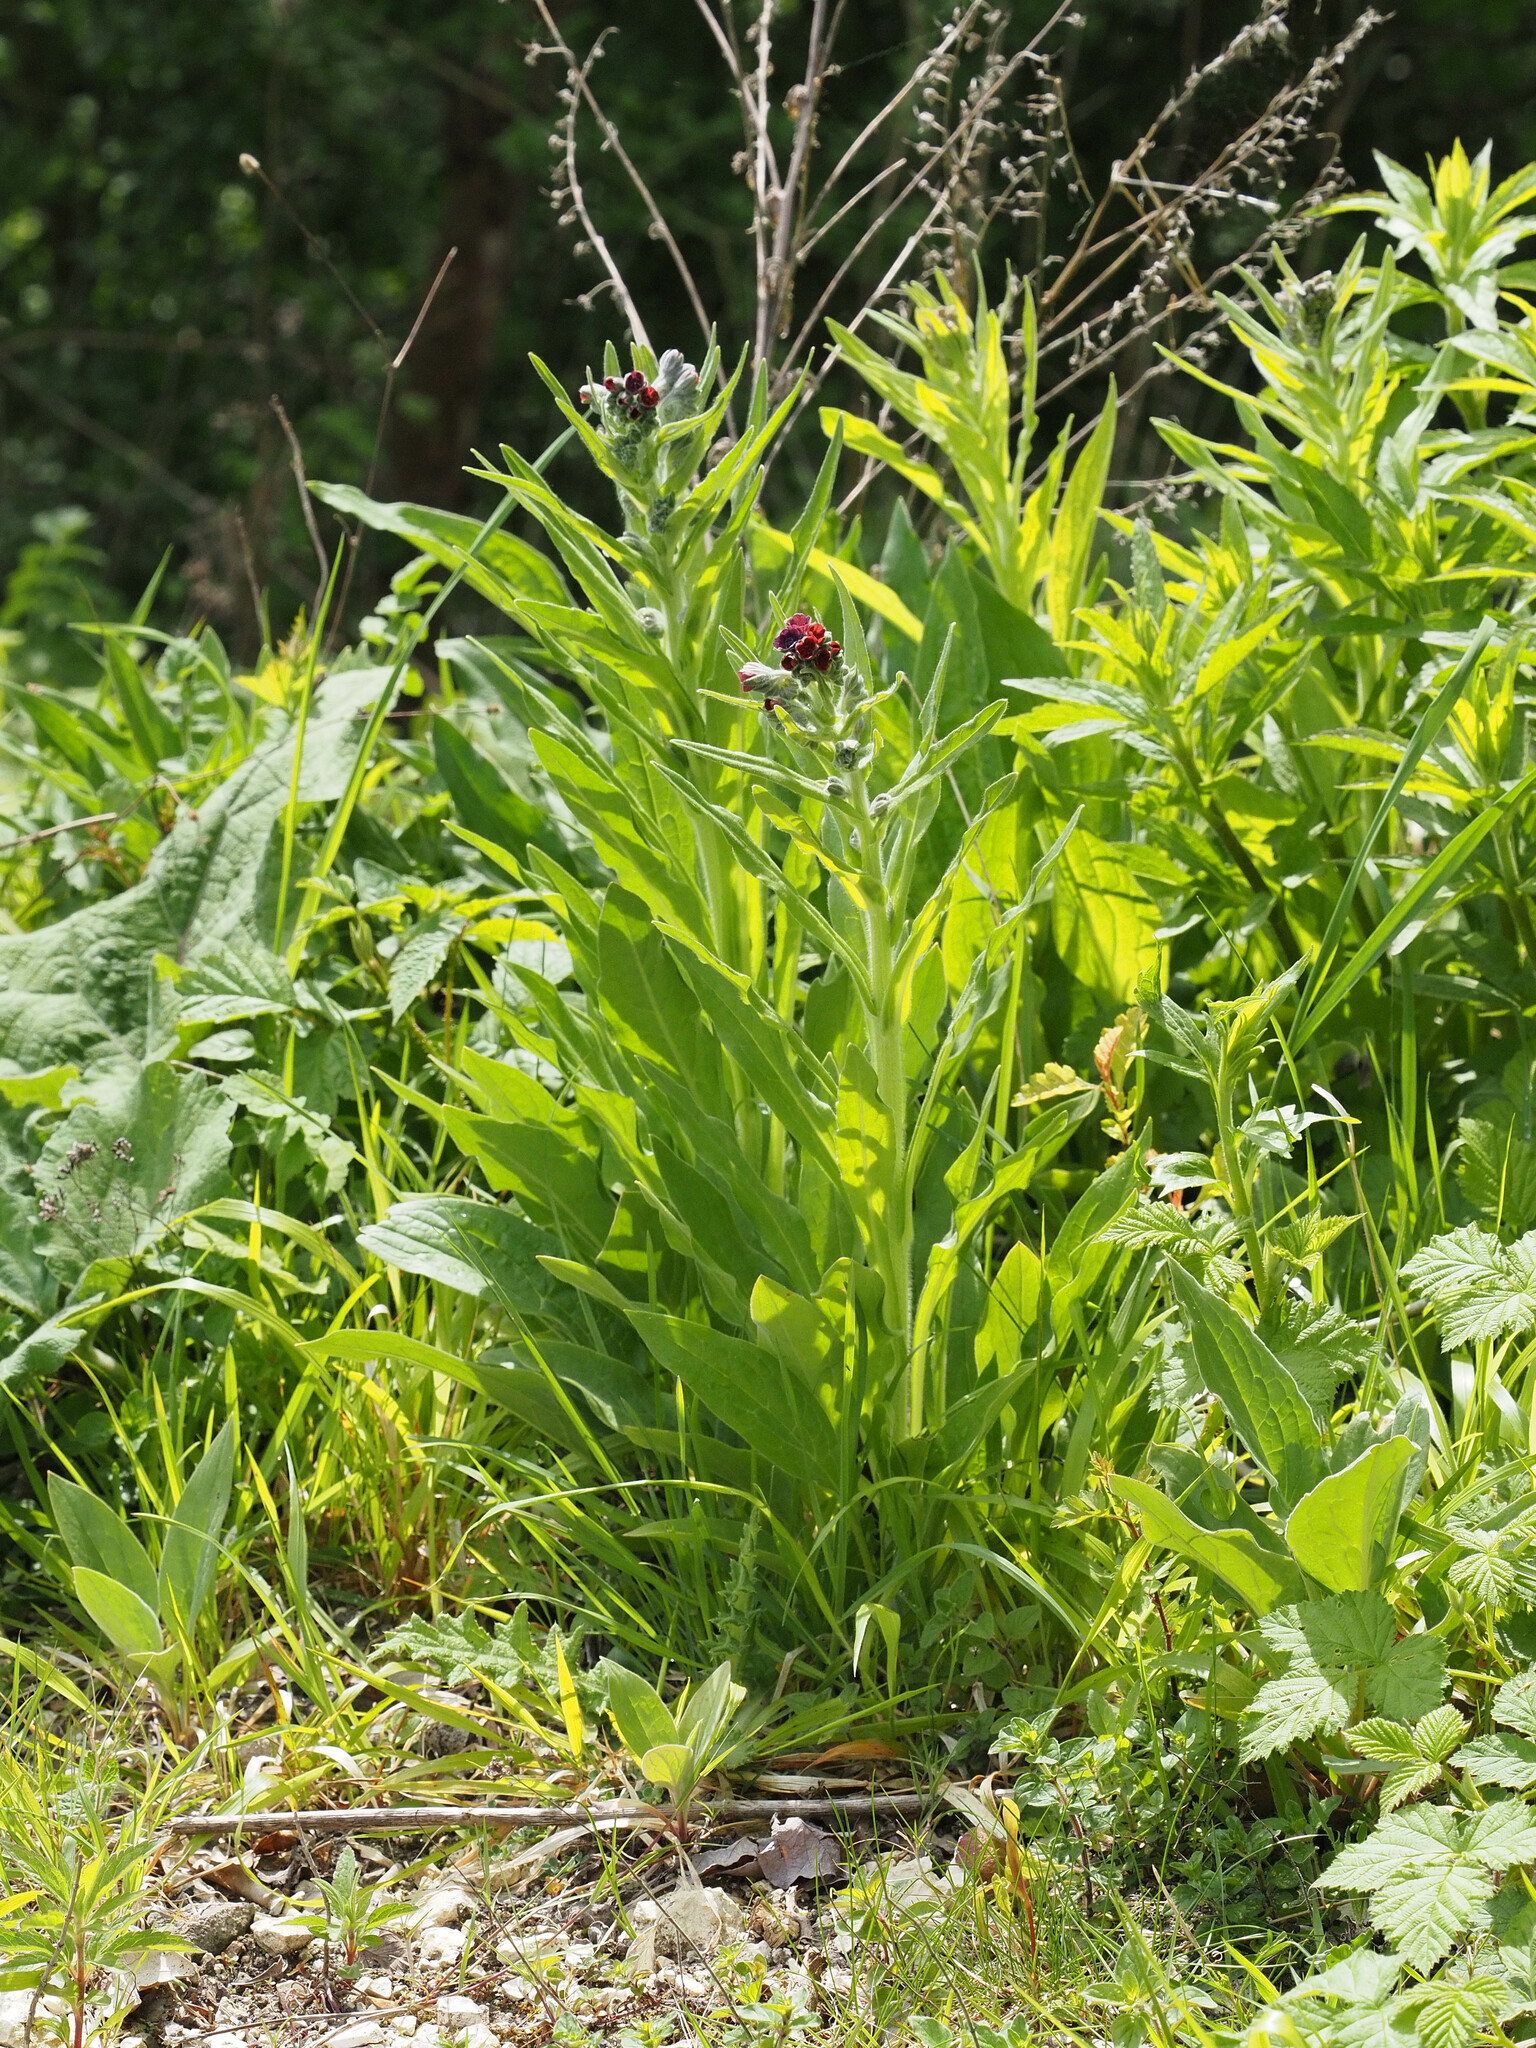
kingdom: Plantae
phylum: Tracheophyta
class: Magnoliopsida
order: Boraginales
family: Boraginaceae
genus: Cynoglossum
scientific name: Cynoglossum officinale
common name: Hound's-tongue
